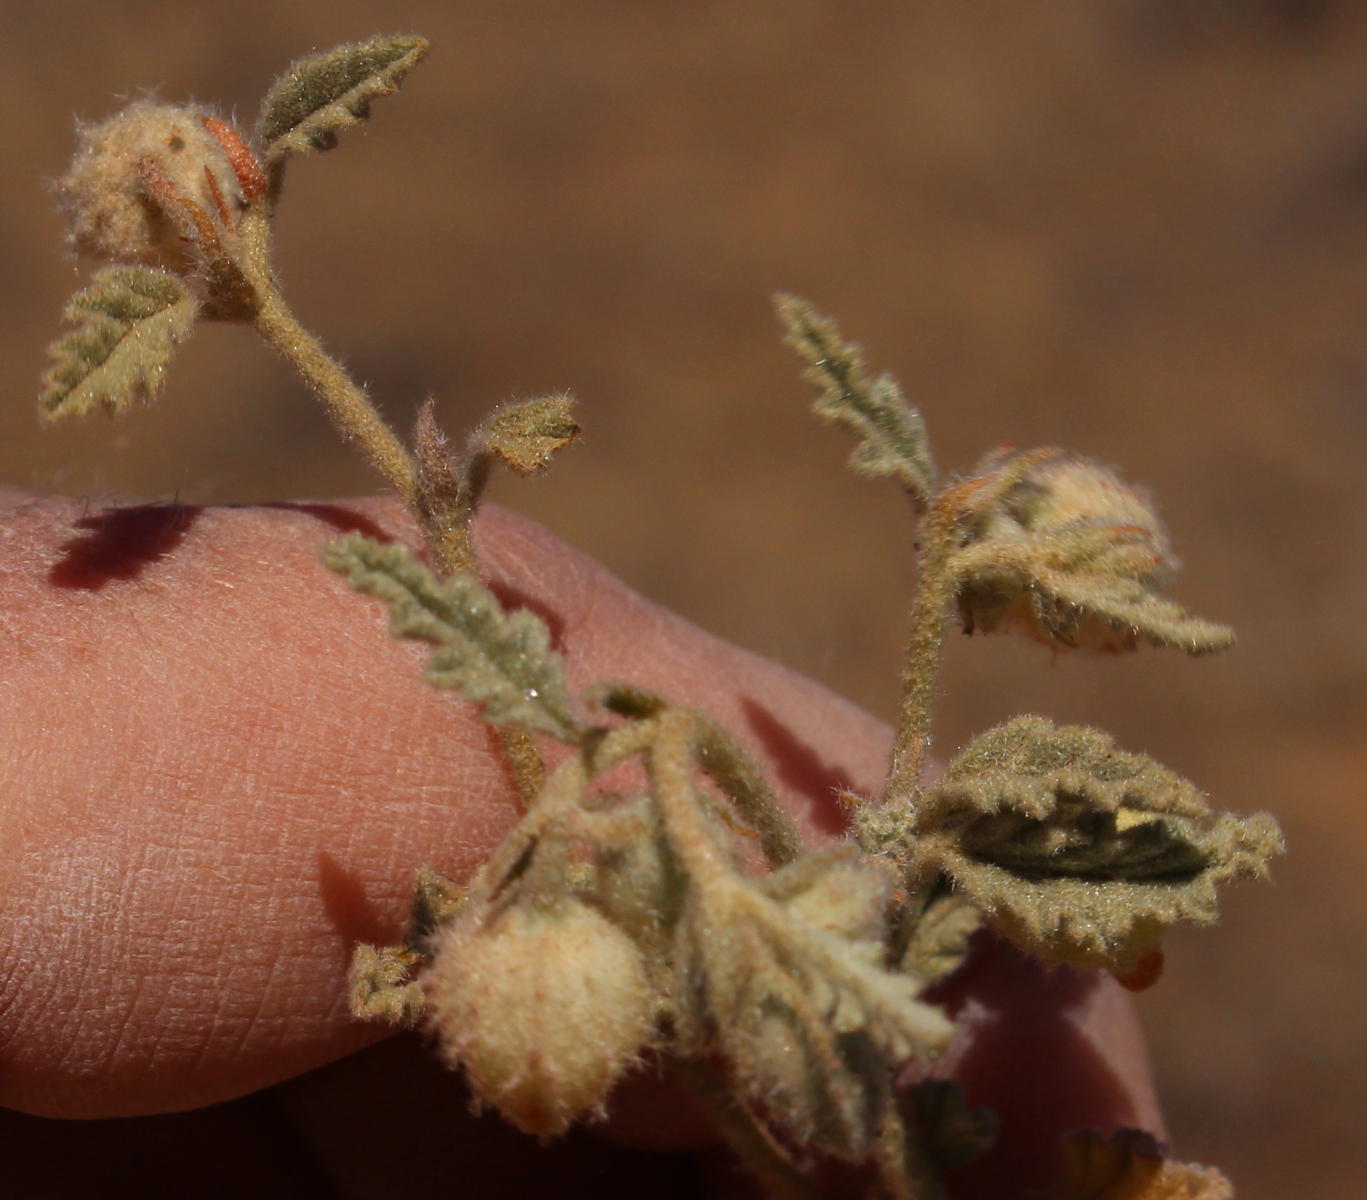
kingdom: Plantae
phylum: Tracheophyta
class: Magnoliopsida
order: Malvales
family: Malvaceae
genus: Hermannia
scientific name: Hermannia comosa
